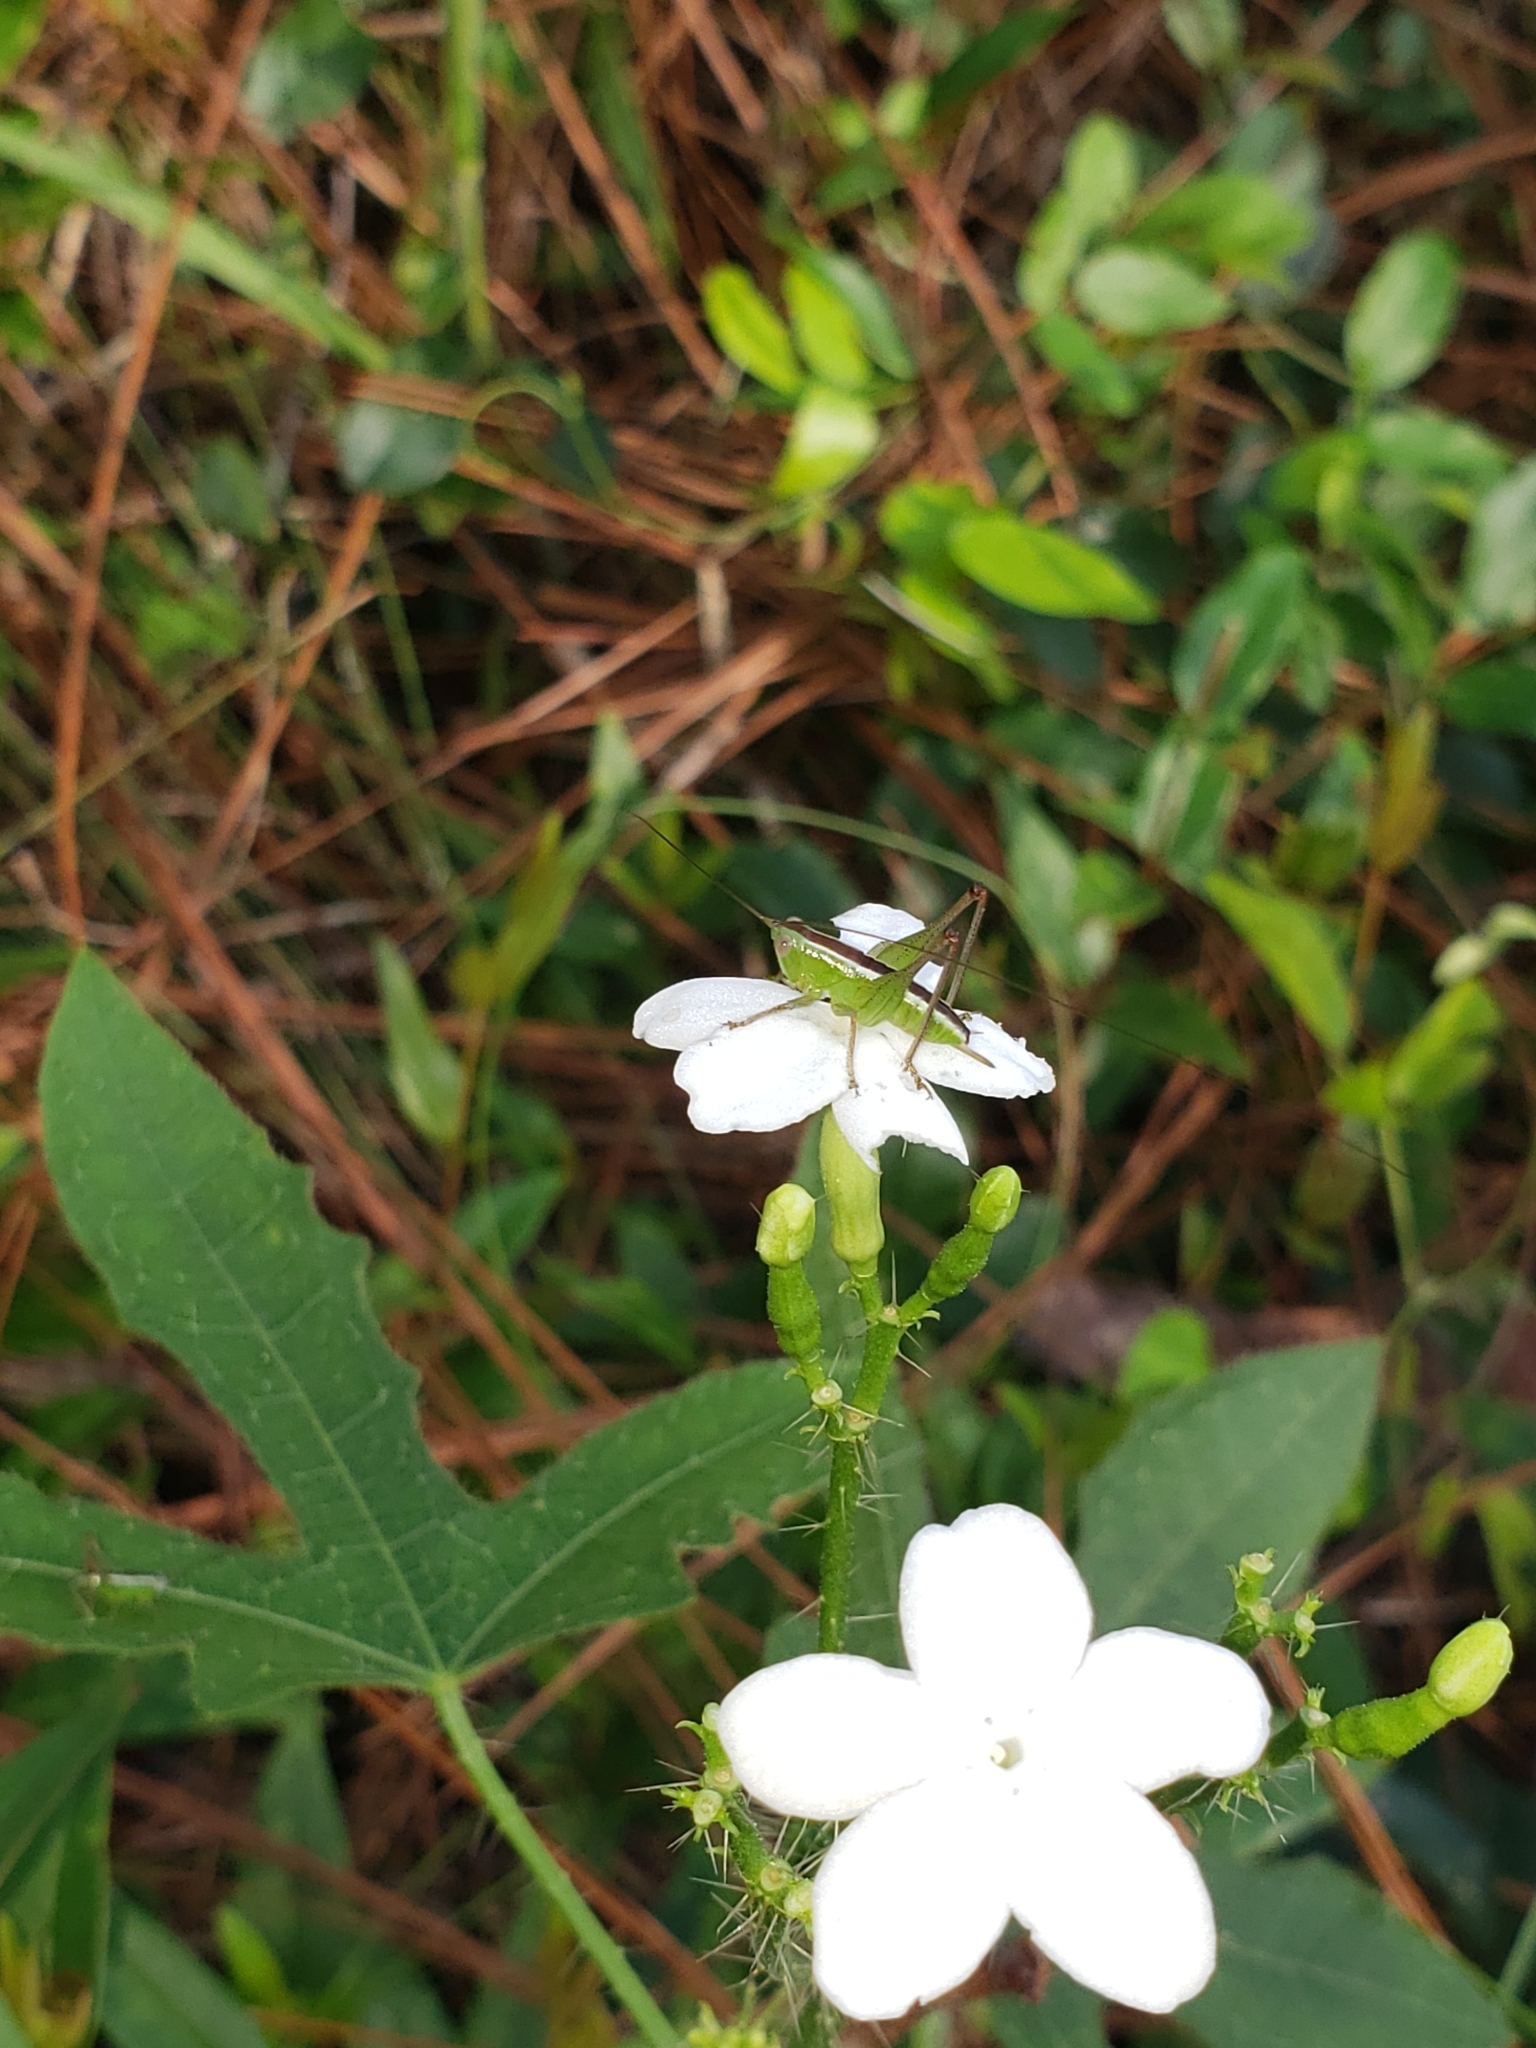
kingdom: Plantae
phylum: Tracheophyta
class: Magnoliopsida
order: Malpighiales
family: Euphorbiaceae
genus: Cnidoscolus
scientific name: Cnidoscolus stimulosus
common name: Bull-nettle
